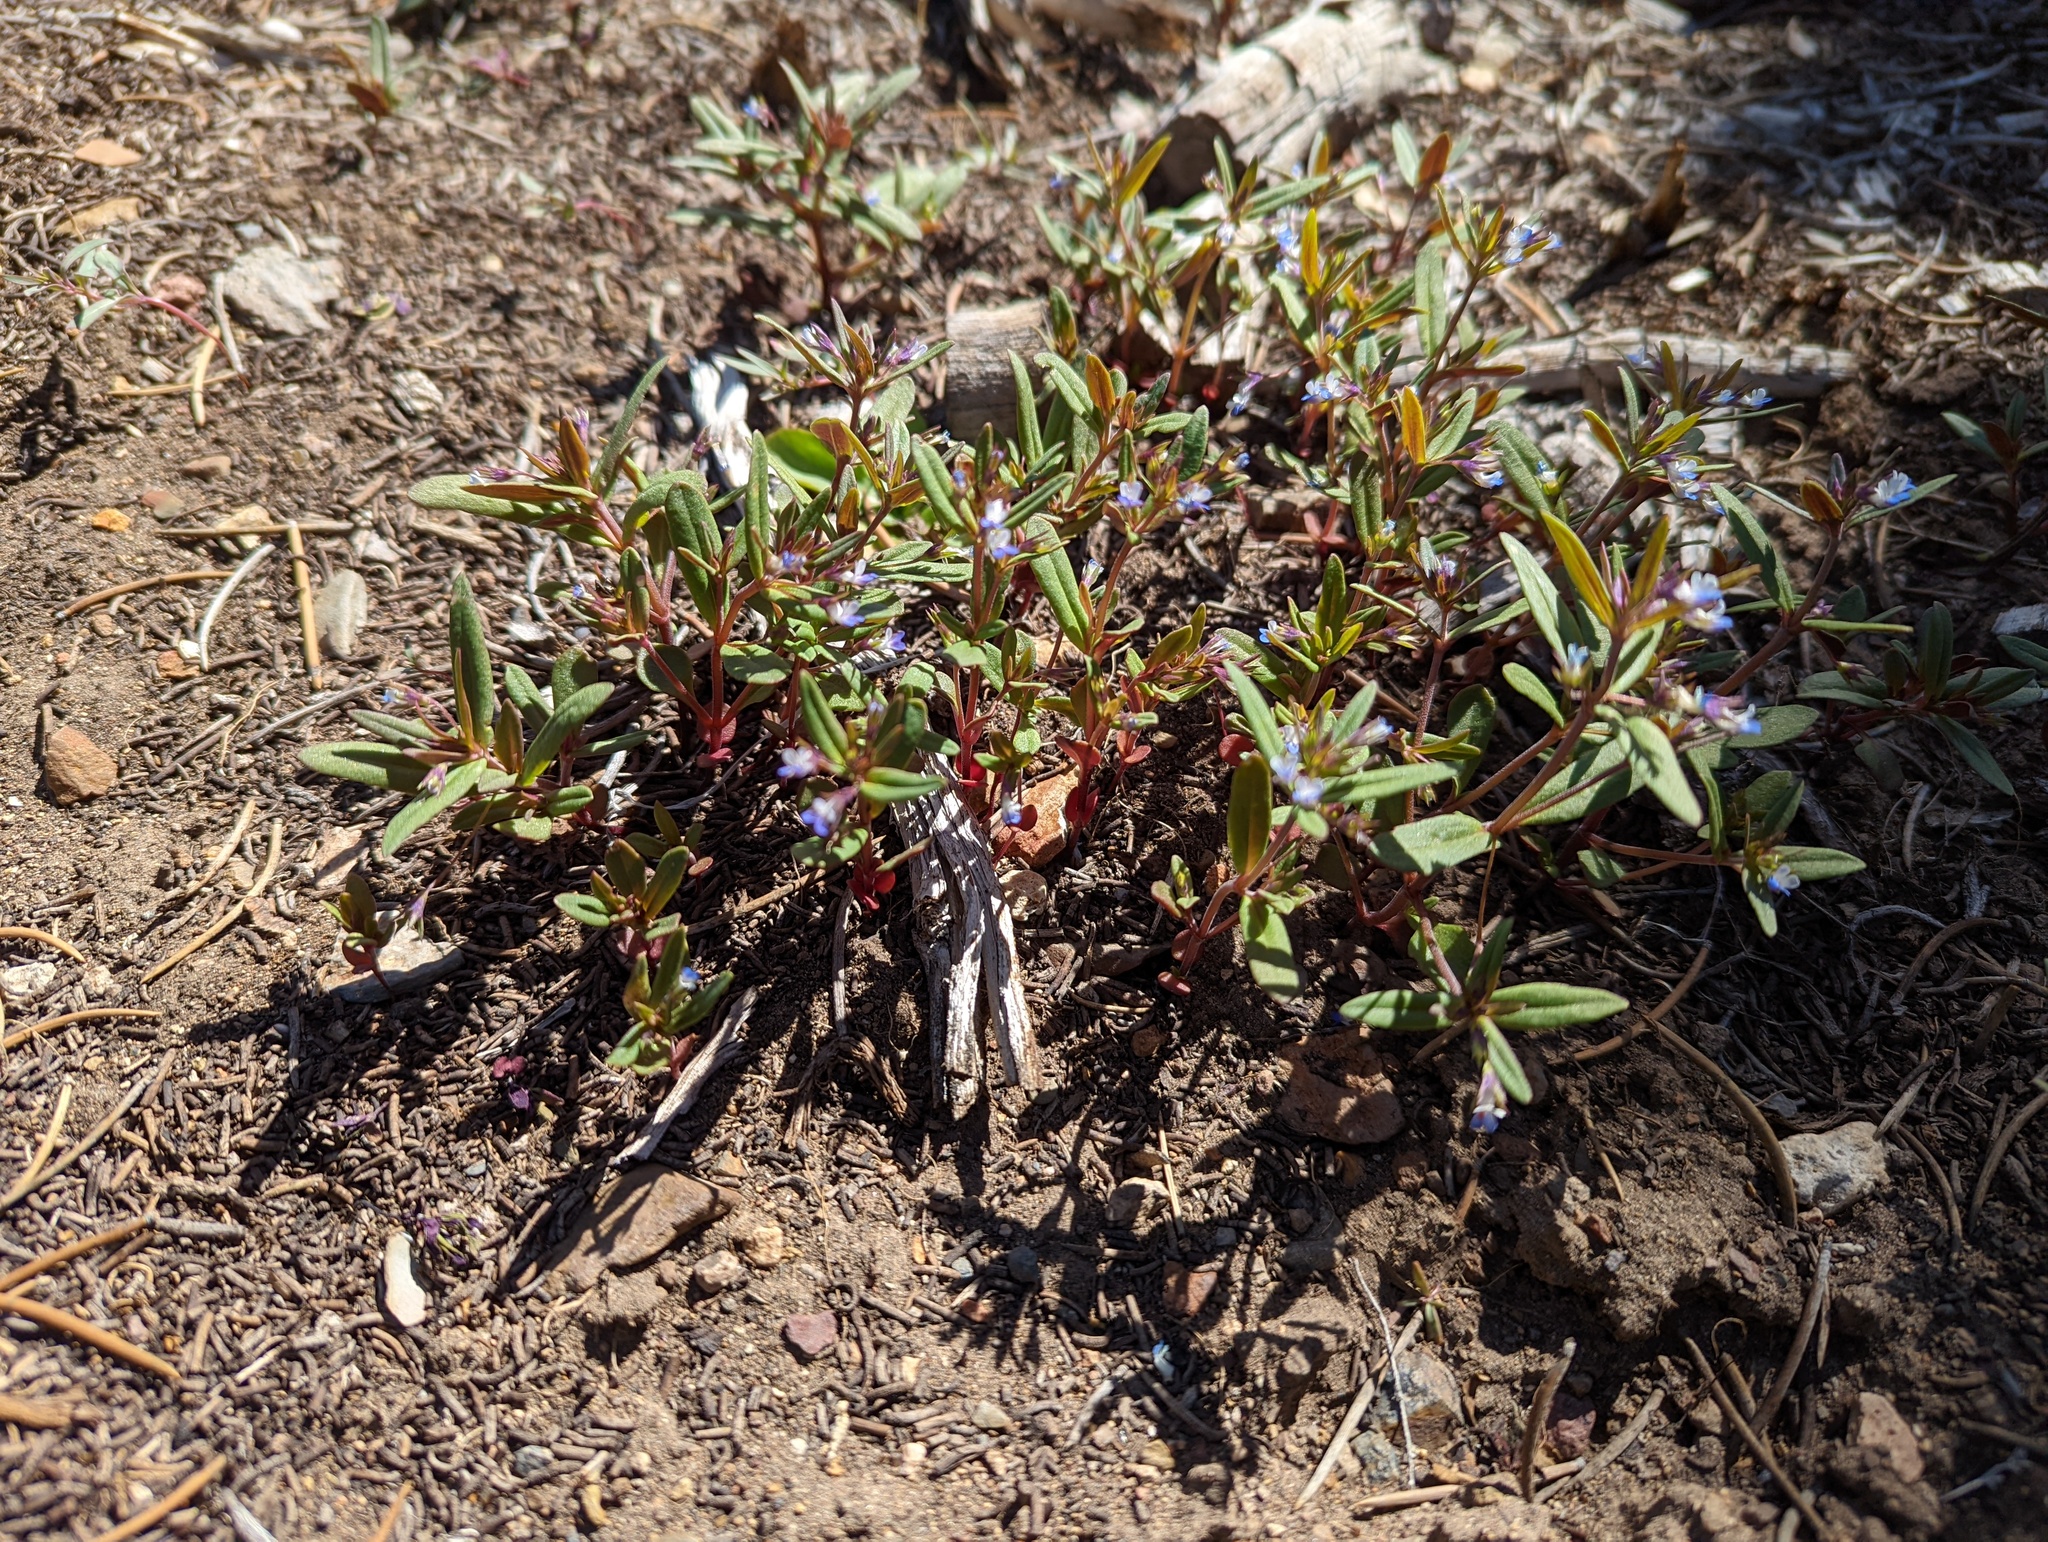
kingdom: Plantae
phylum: Tracheophyta
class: Magnoliopsida
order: Lamiales
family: Plantaginaceae
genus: Collinsia
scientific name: Collinsia parviflora
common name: Blue-lips
